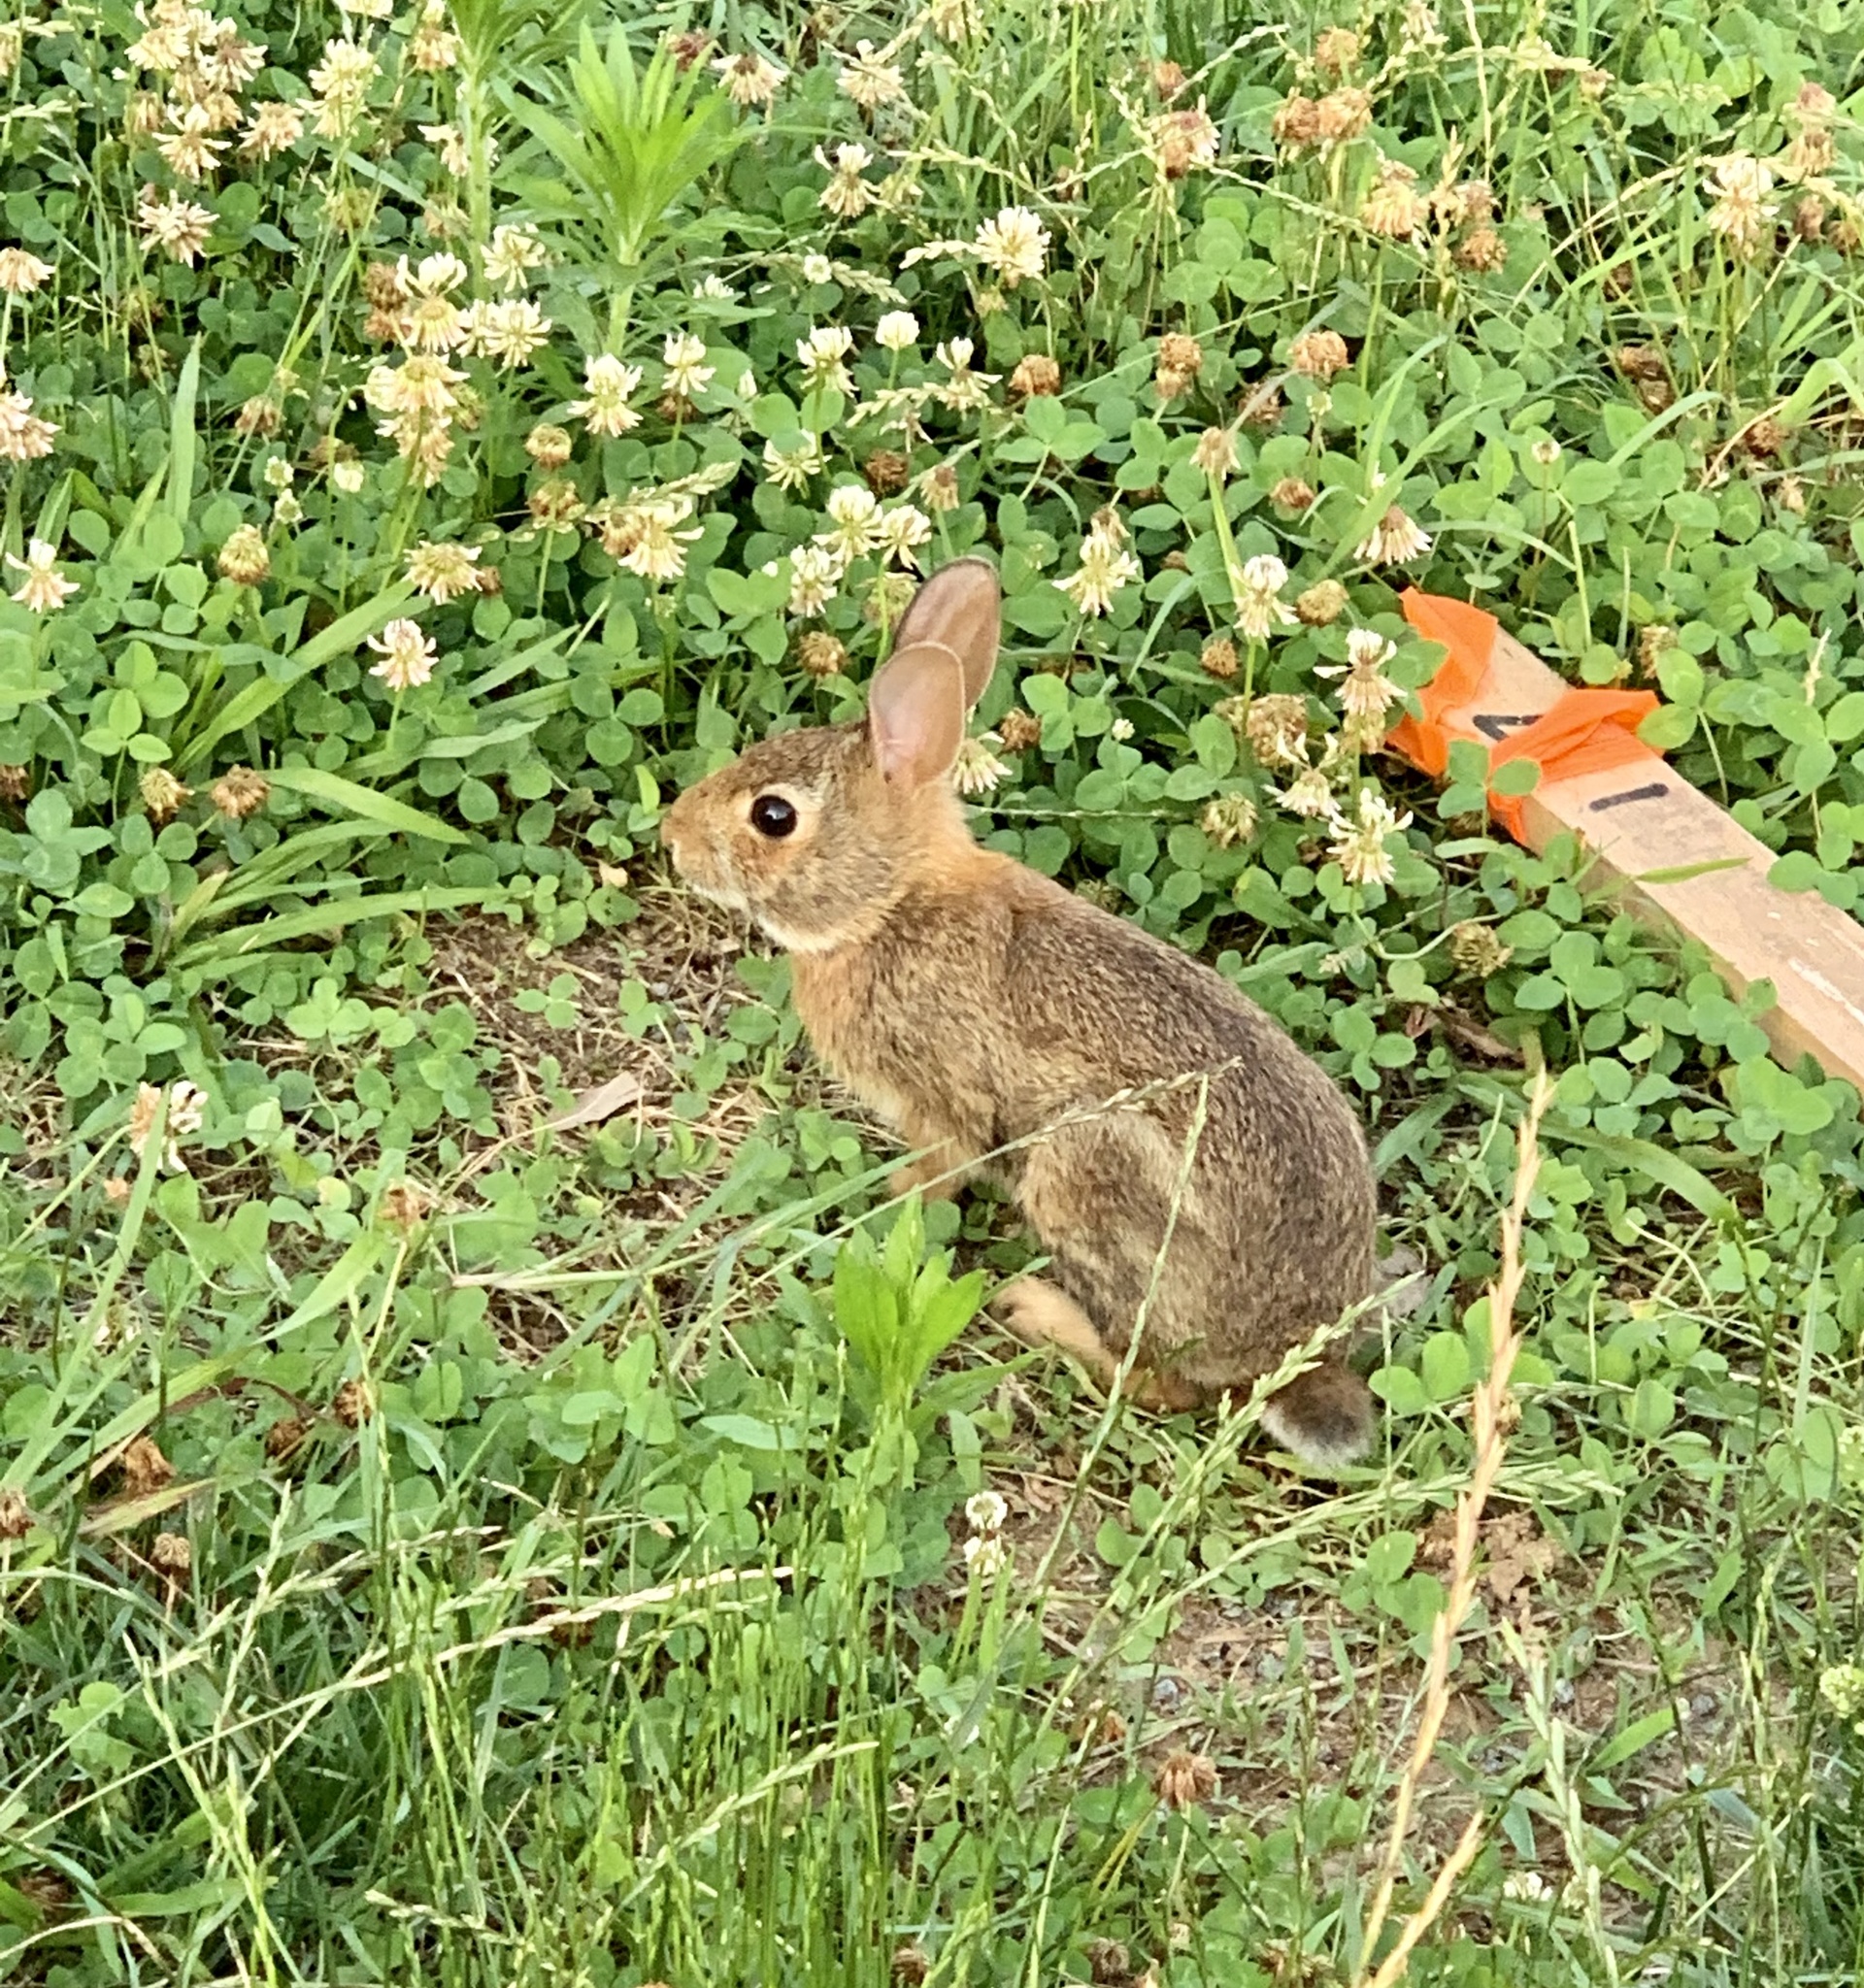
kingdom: Animalia
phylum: Chordata
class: Mammalia
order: Lagomorpha
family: Leporidae
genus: Sylvilagus
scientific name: Sylvilagus floridanus
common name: Eastern cottontail
